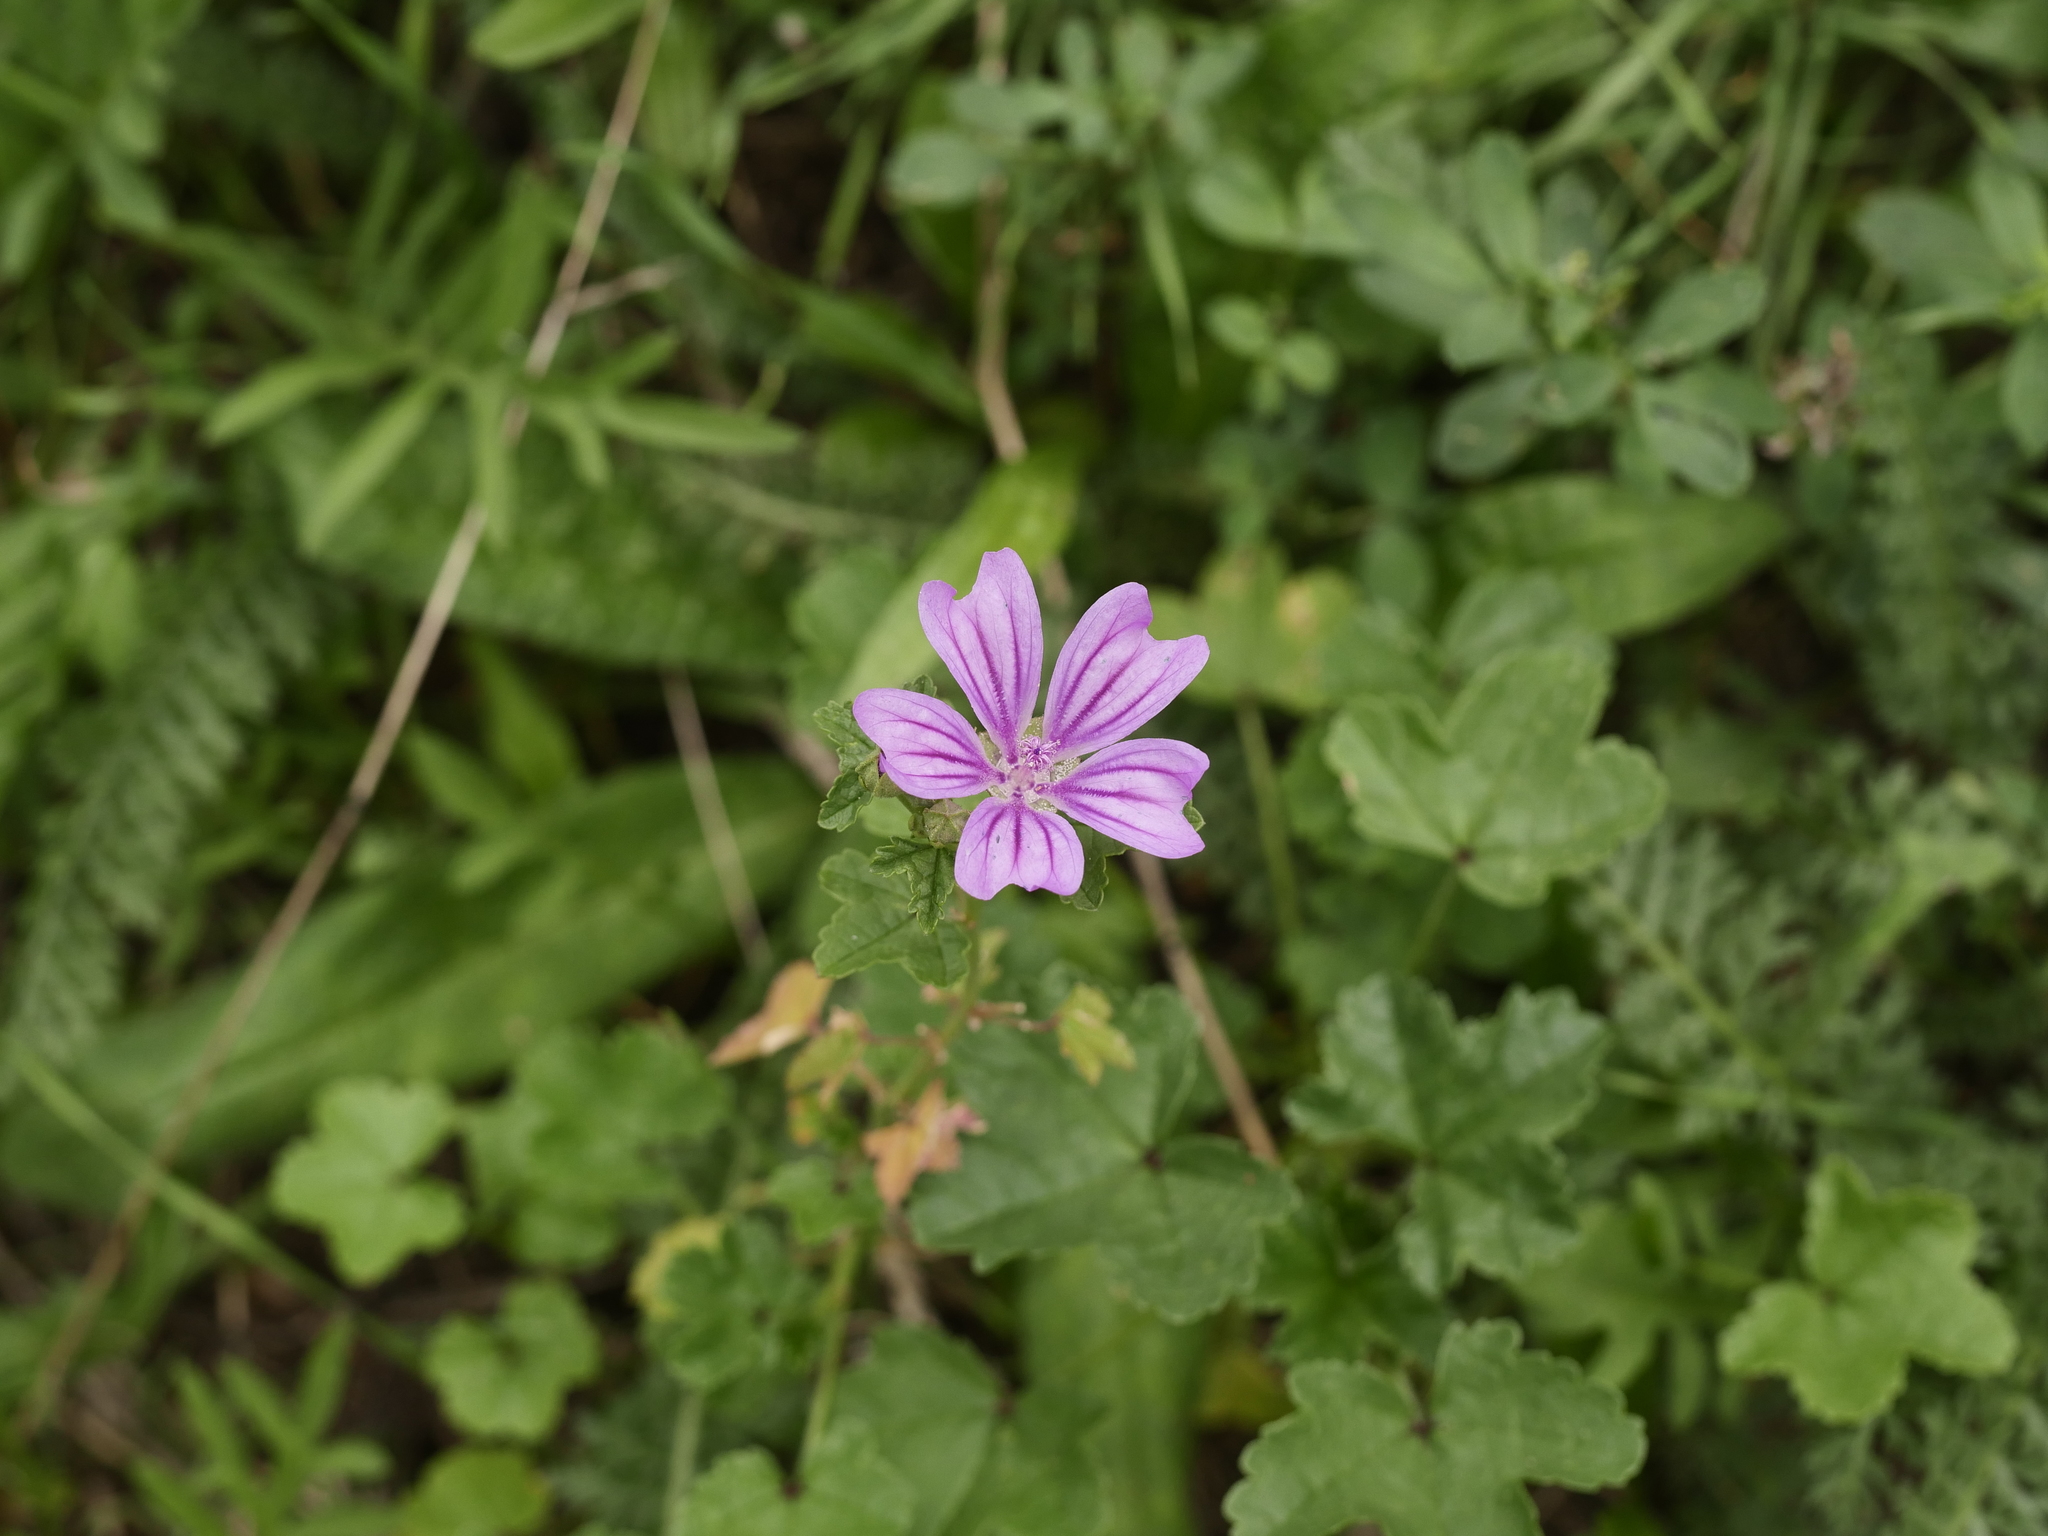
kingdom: Plantae
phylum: Tracheophyta
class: Magnoliopsida
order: Malvales
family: Malvaceae
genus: Malva
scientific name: Malva sylvestris
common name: Common mallow
